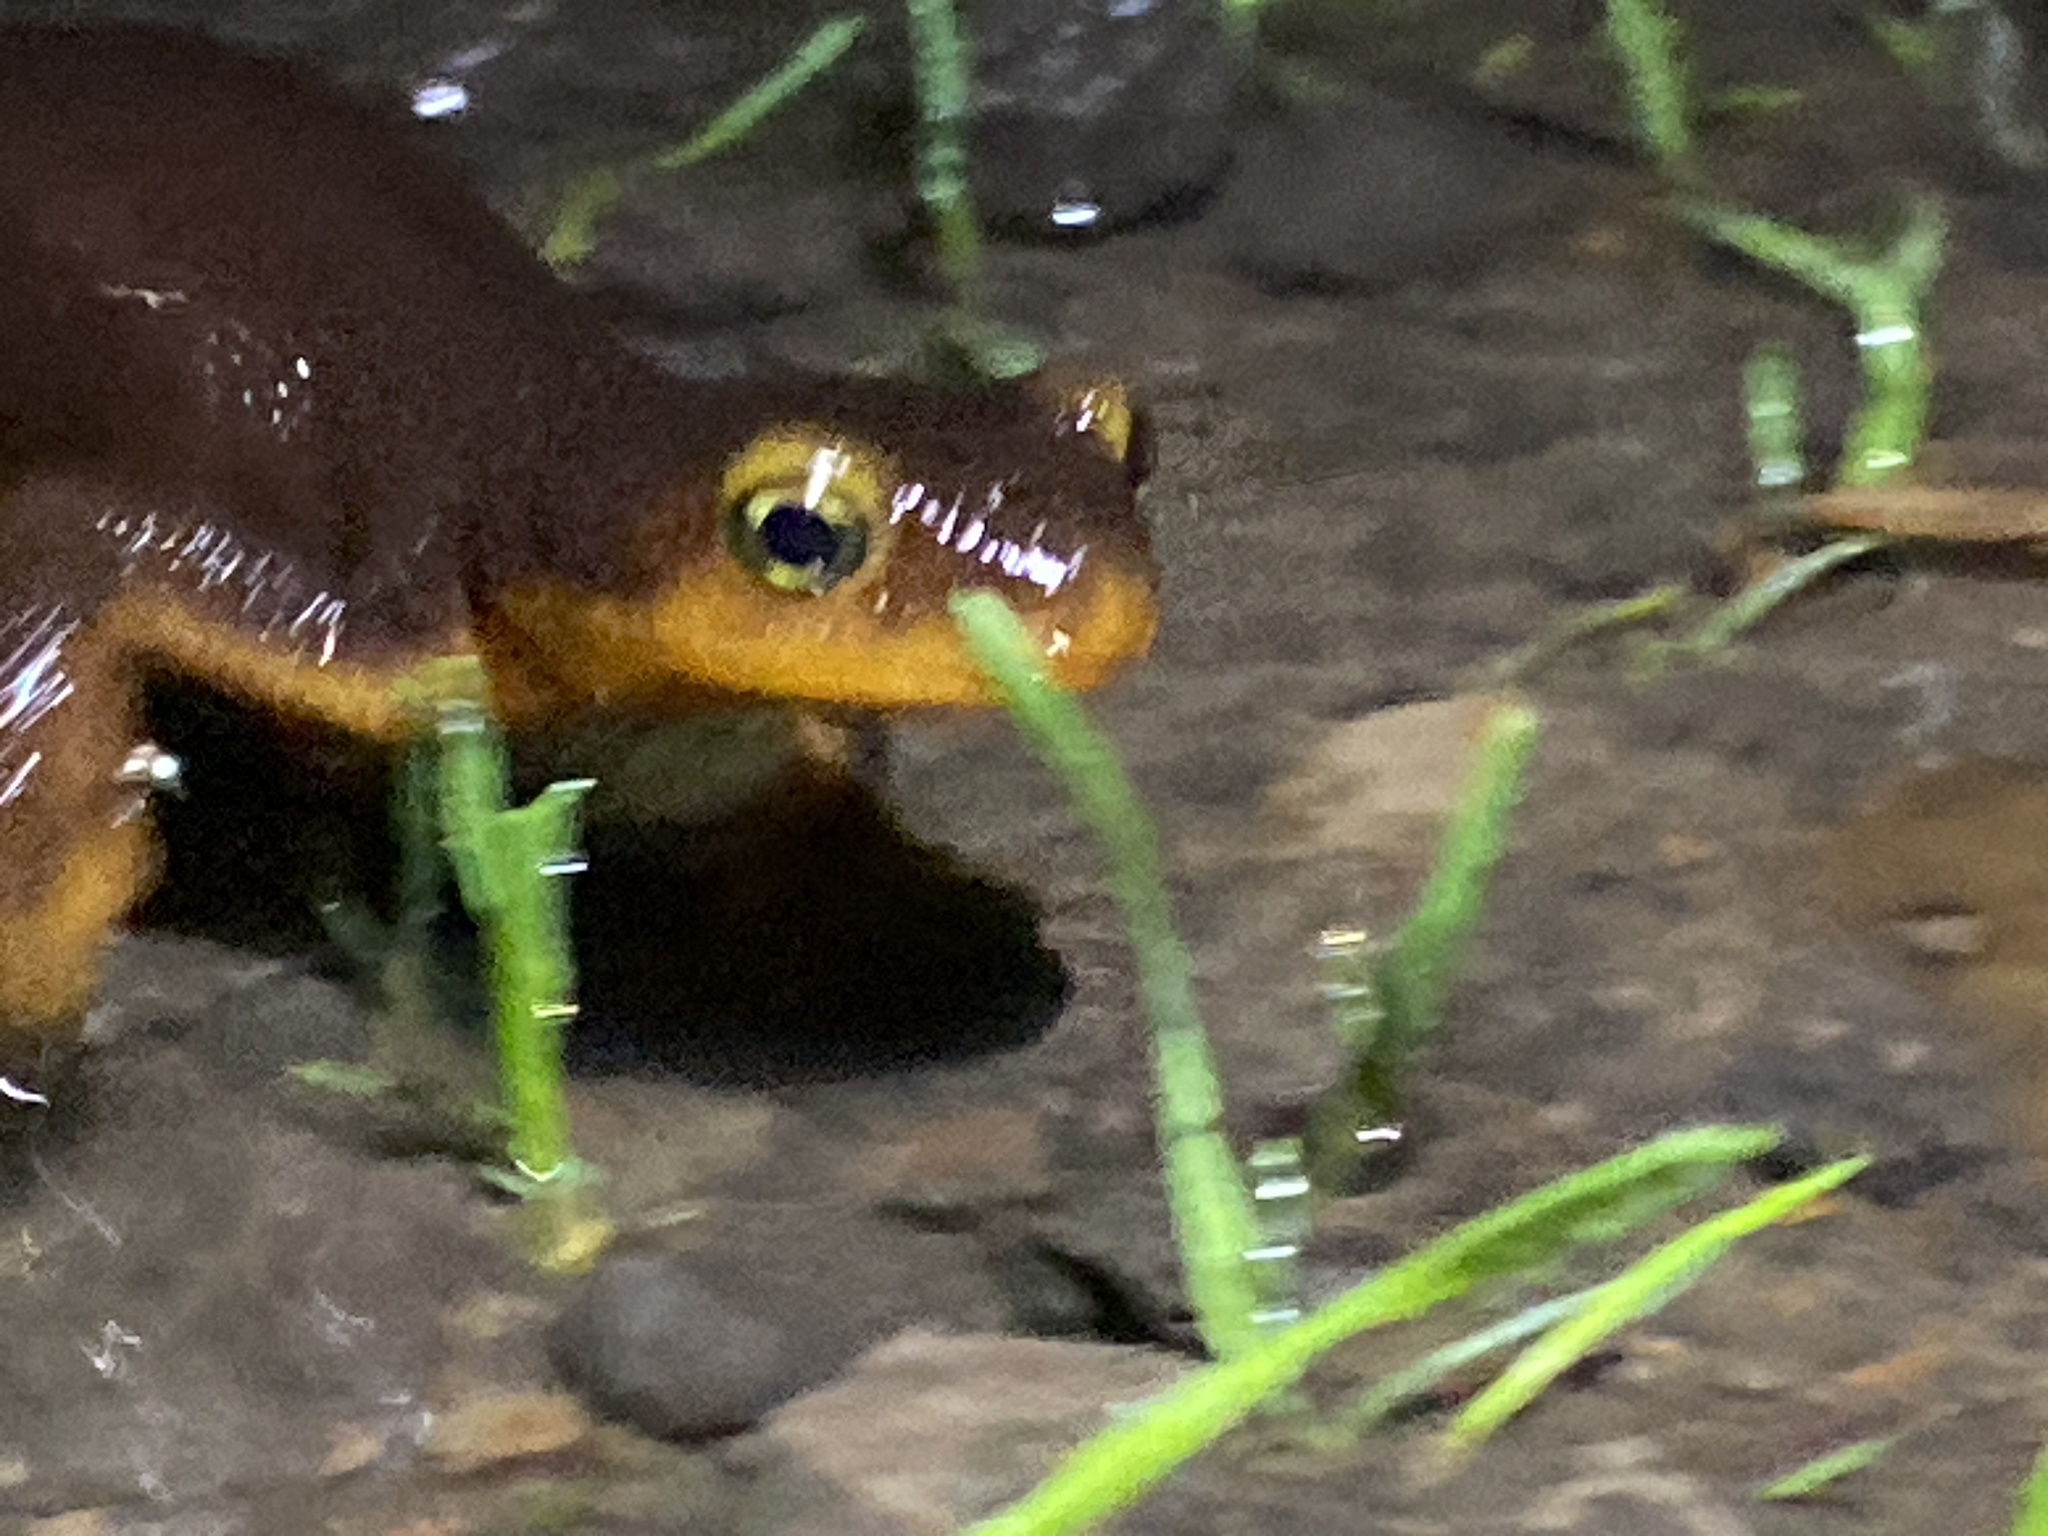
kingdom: Animalia
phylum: Chordata
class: Amphibia
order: Caudata
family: Salamandridae
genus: Taricha
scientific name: Taricha torosa
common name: California newt
